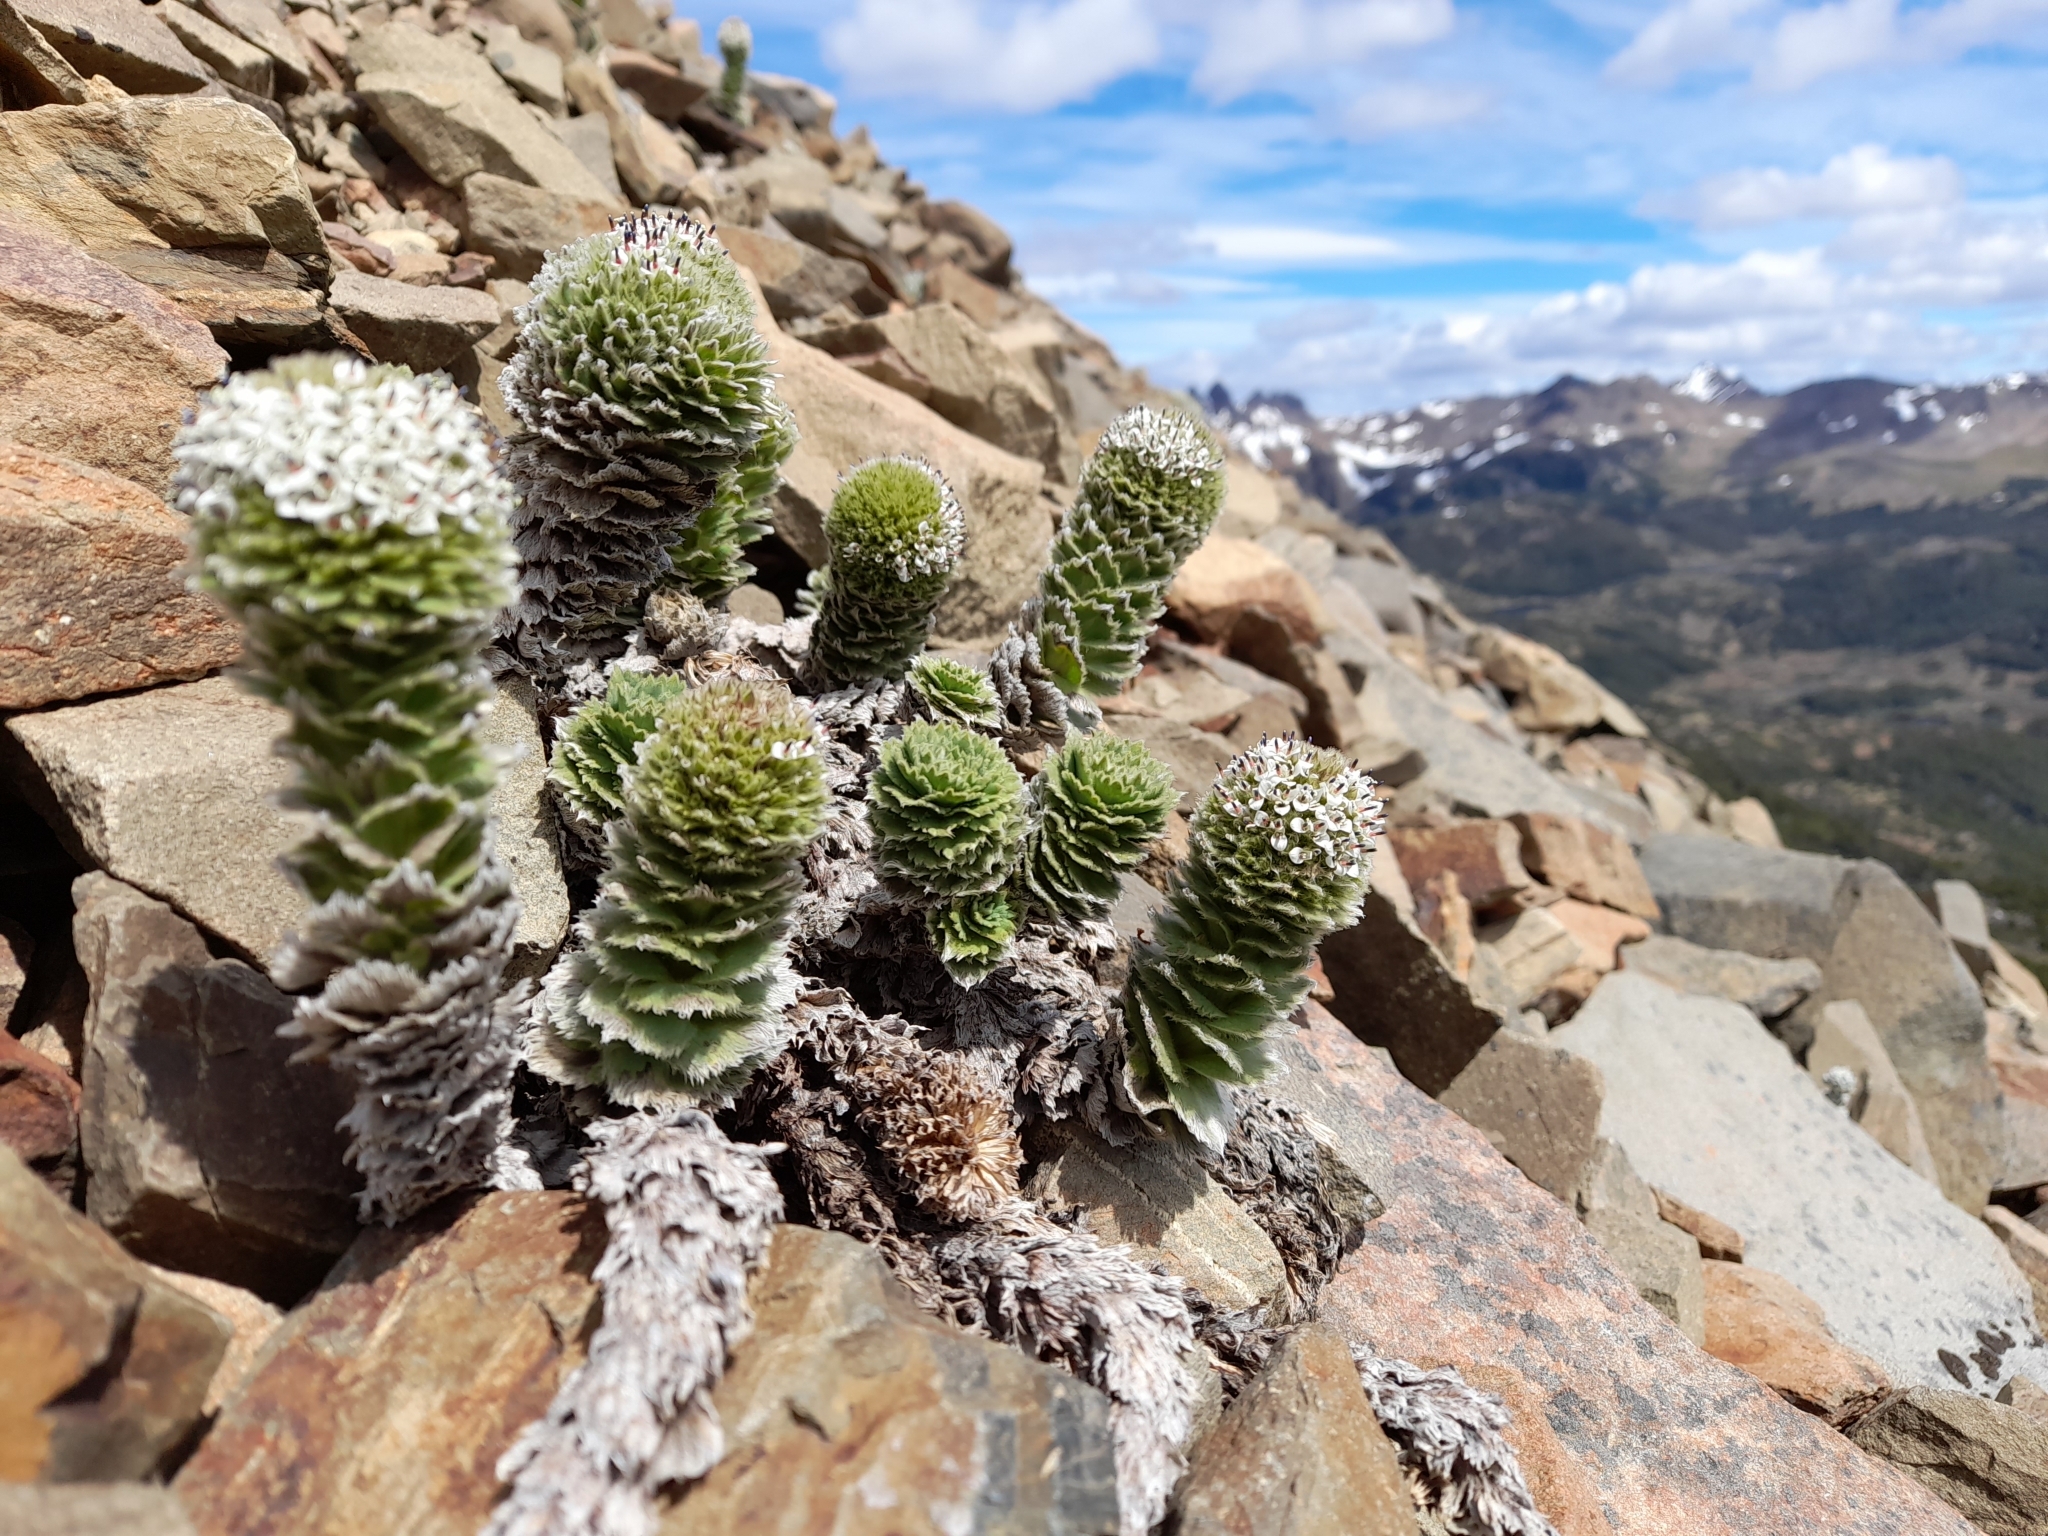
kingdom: Plantae
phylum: Tracheophyta
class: Magnoliopsida
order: Asterales
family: Asteraceae
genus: Nassauvia
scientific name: Nassauvia latissima
